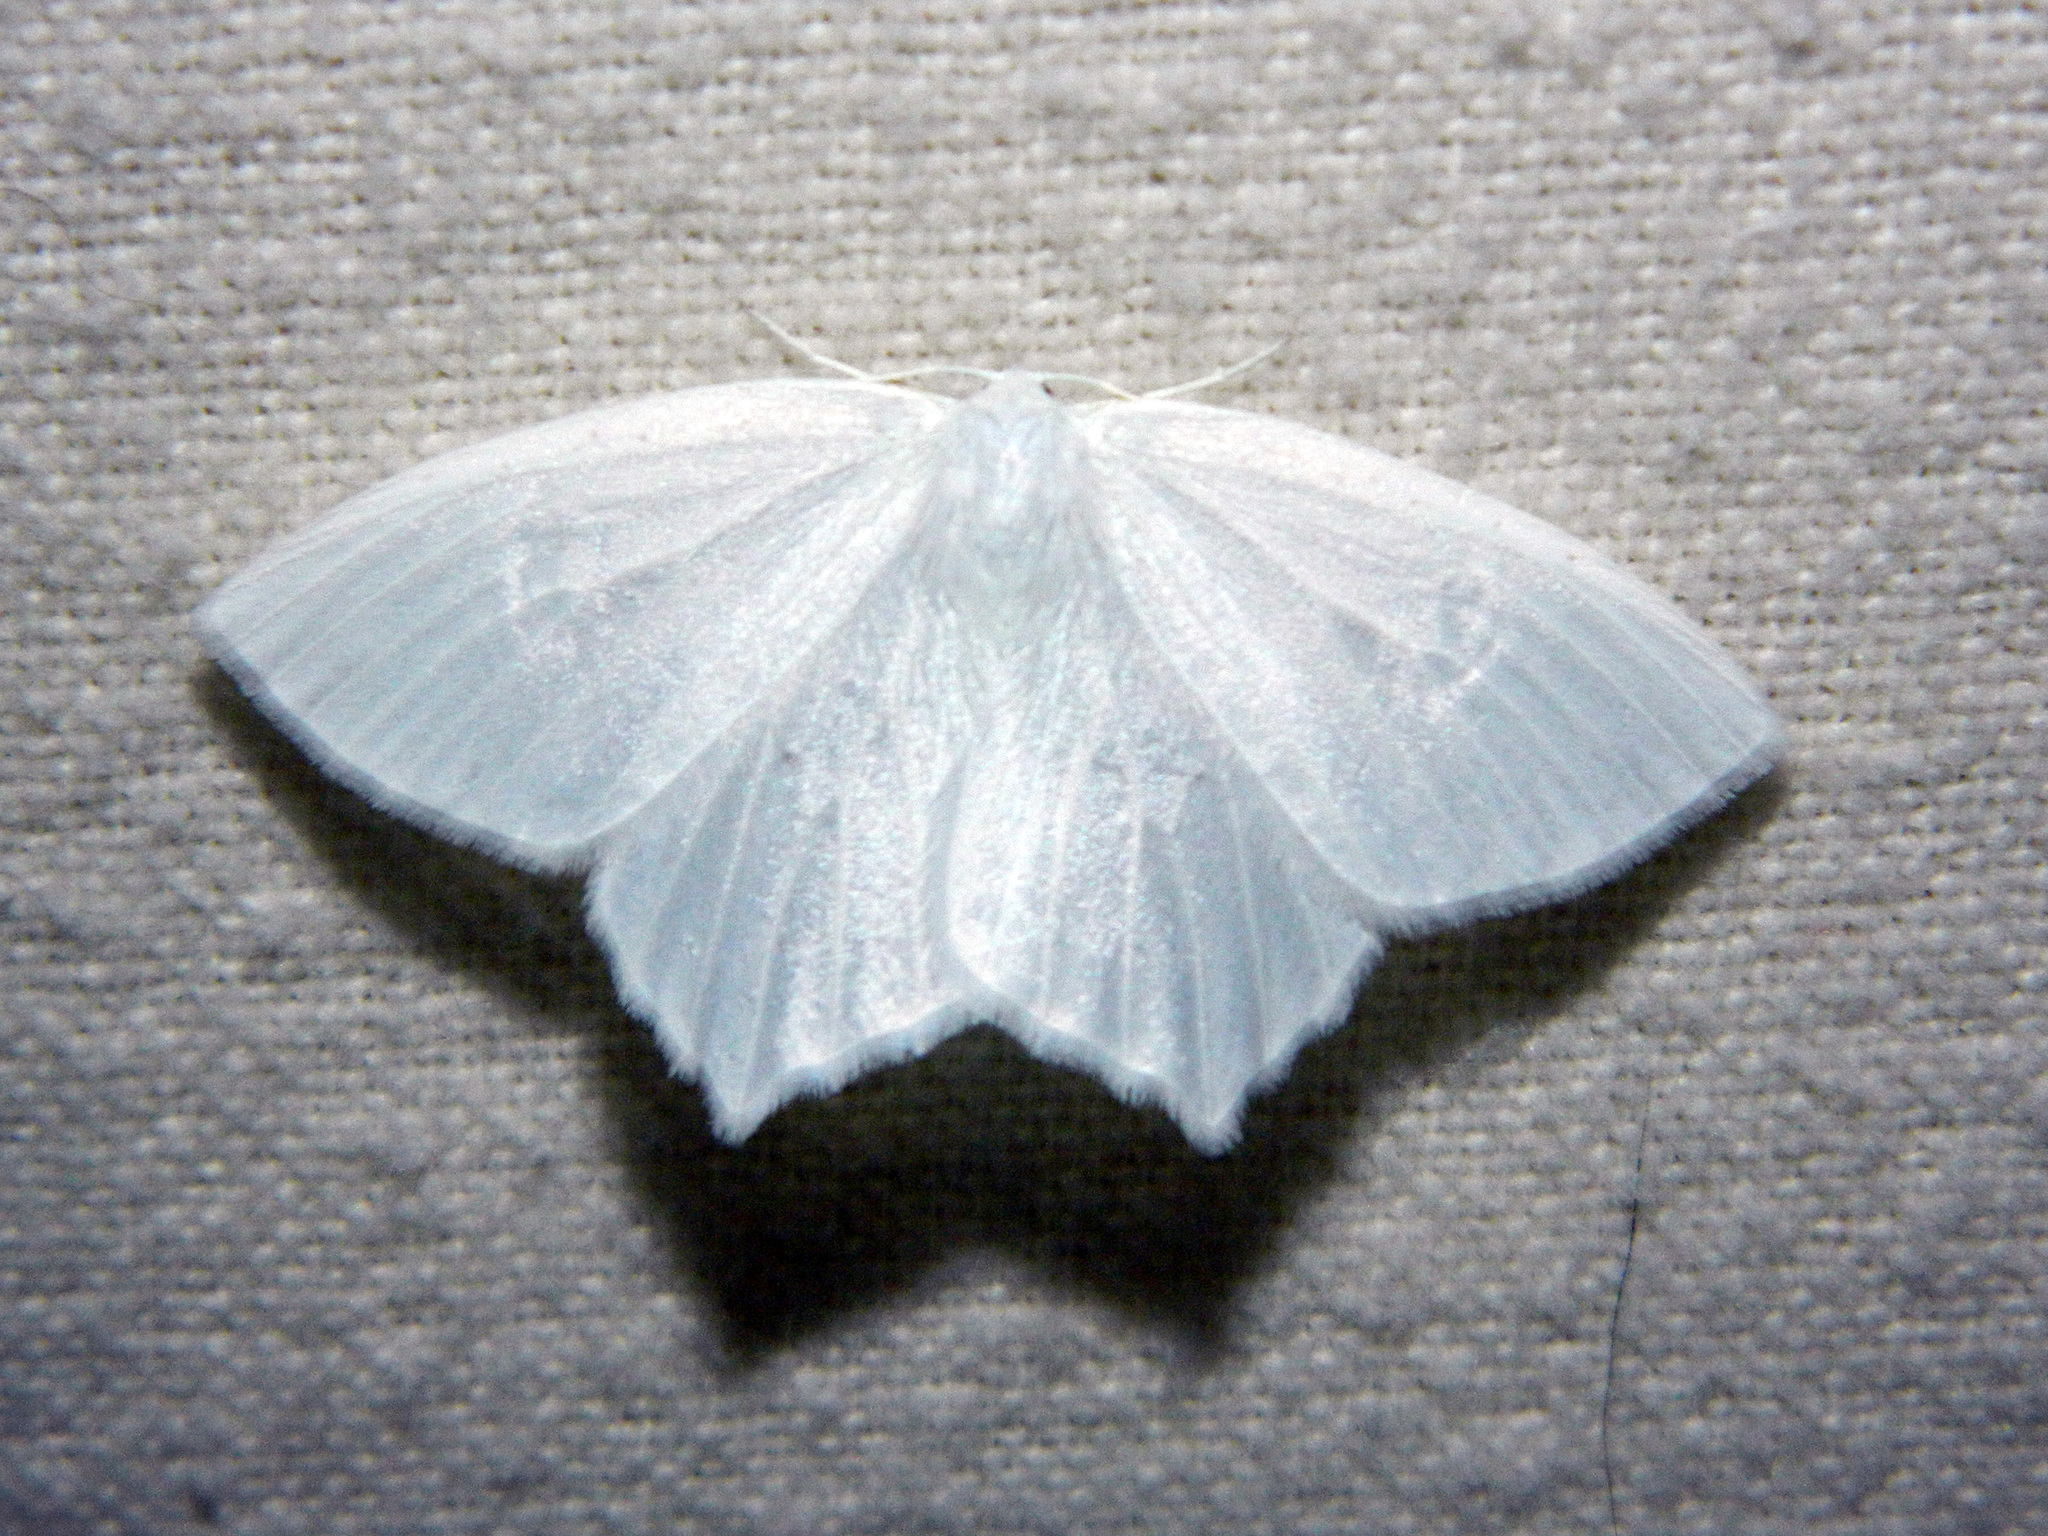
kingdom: Animalia
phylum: Arthropoda
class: Insecta
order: Lepidoptera
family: Geometridae
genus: Eugonobapta
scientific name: Eugonobapta nivosaria
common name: Snowy geometer
